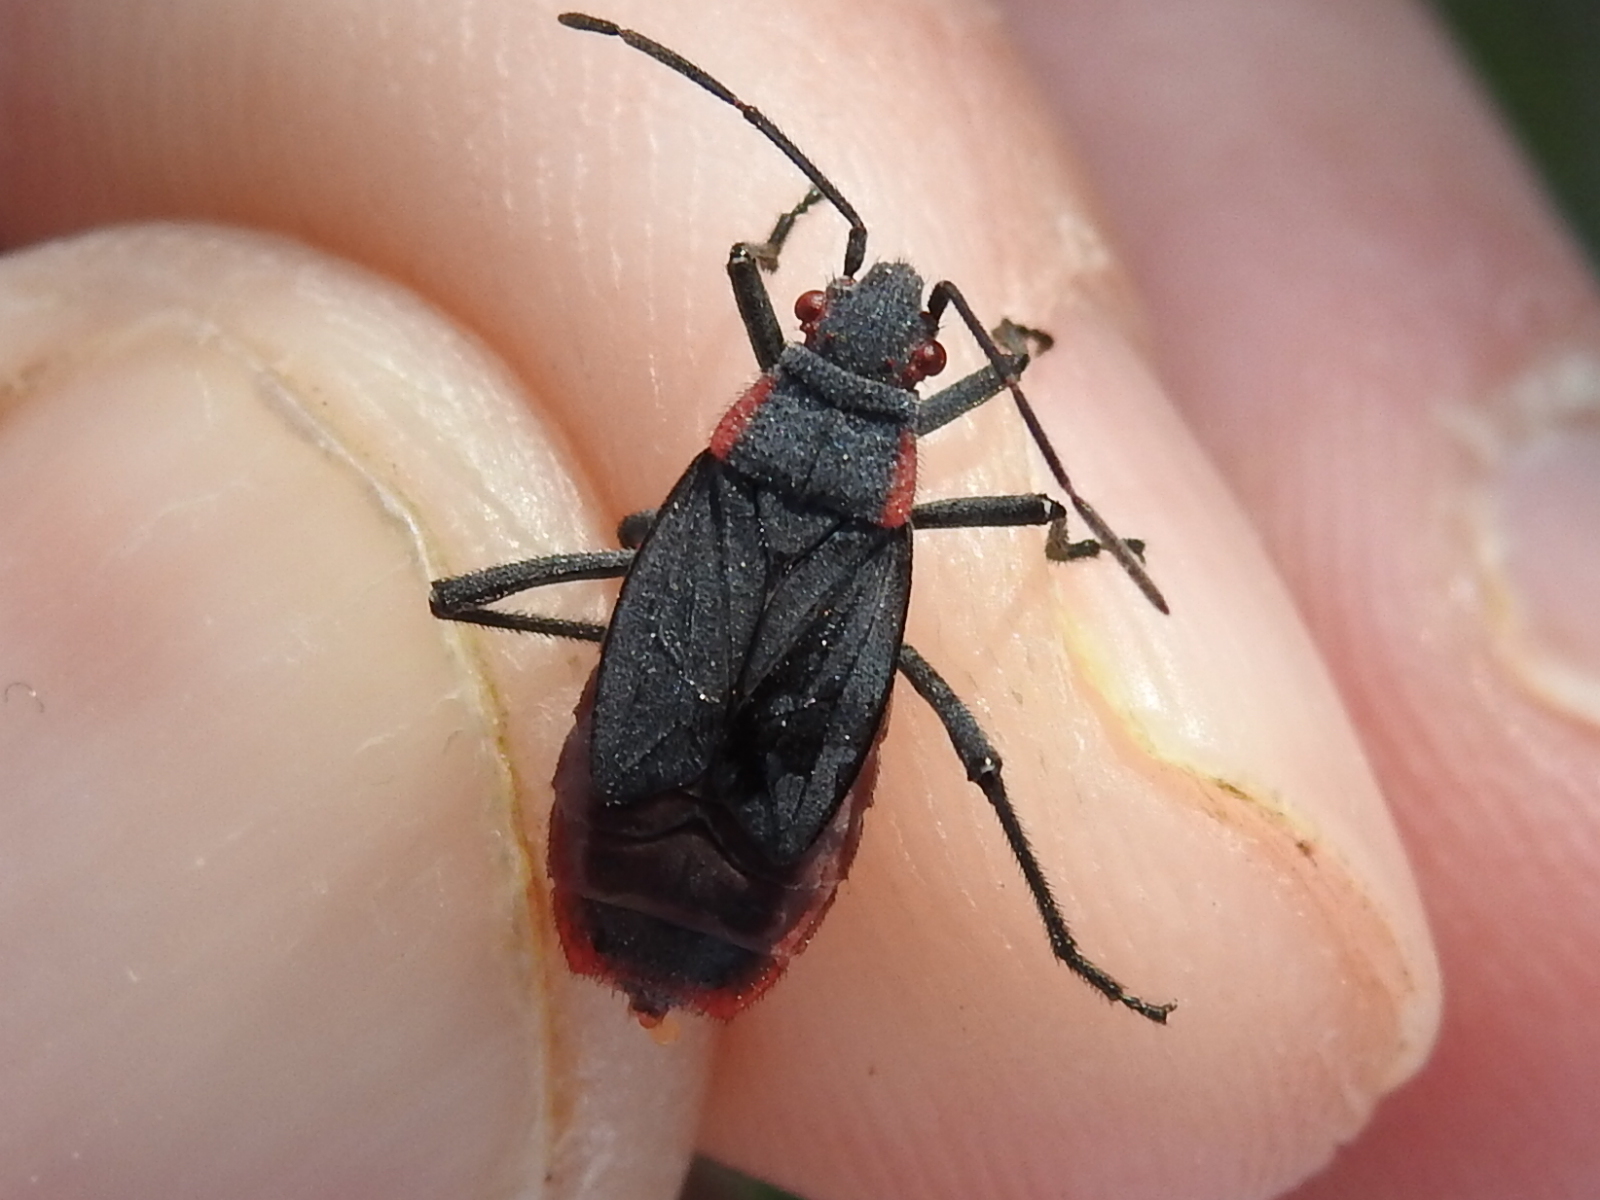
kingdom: Animalia
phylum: Arthropoda
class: Insecta
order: Hemiptera
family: Rhopalidae
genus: Jadera
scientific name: Jadera haematoloma
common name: Red-shouldered bug
